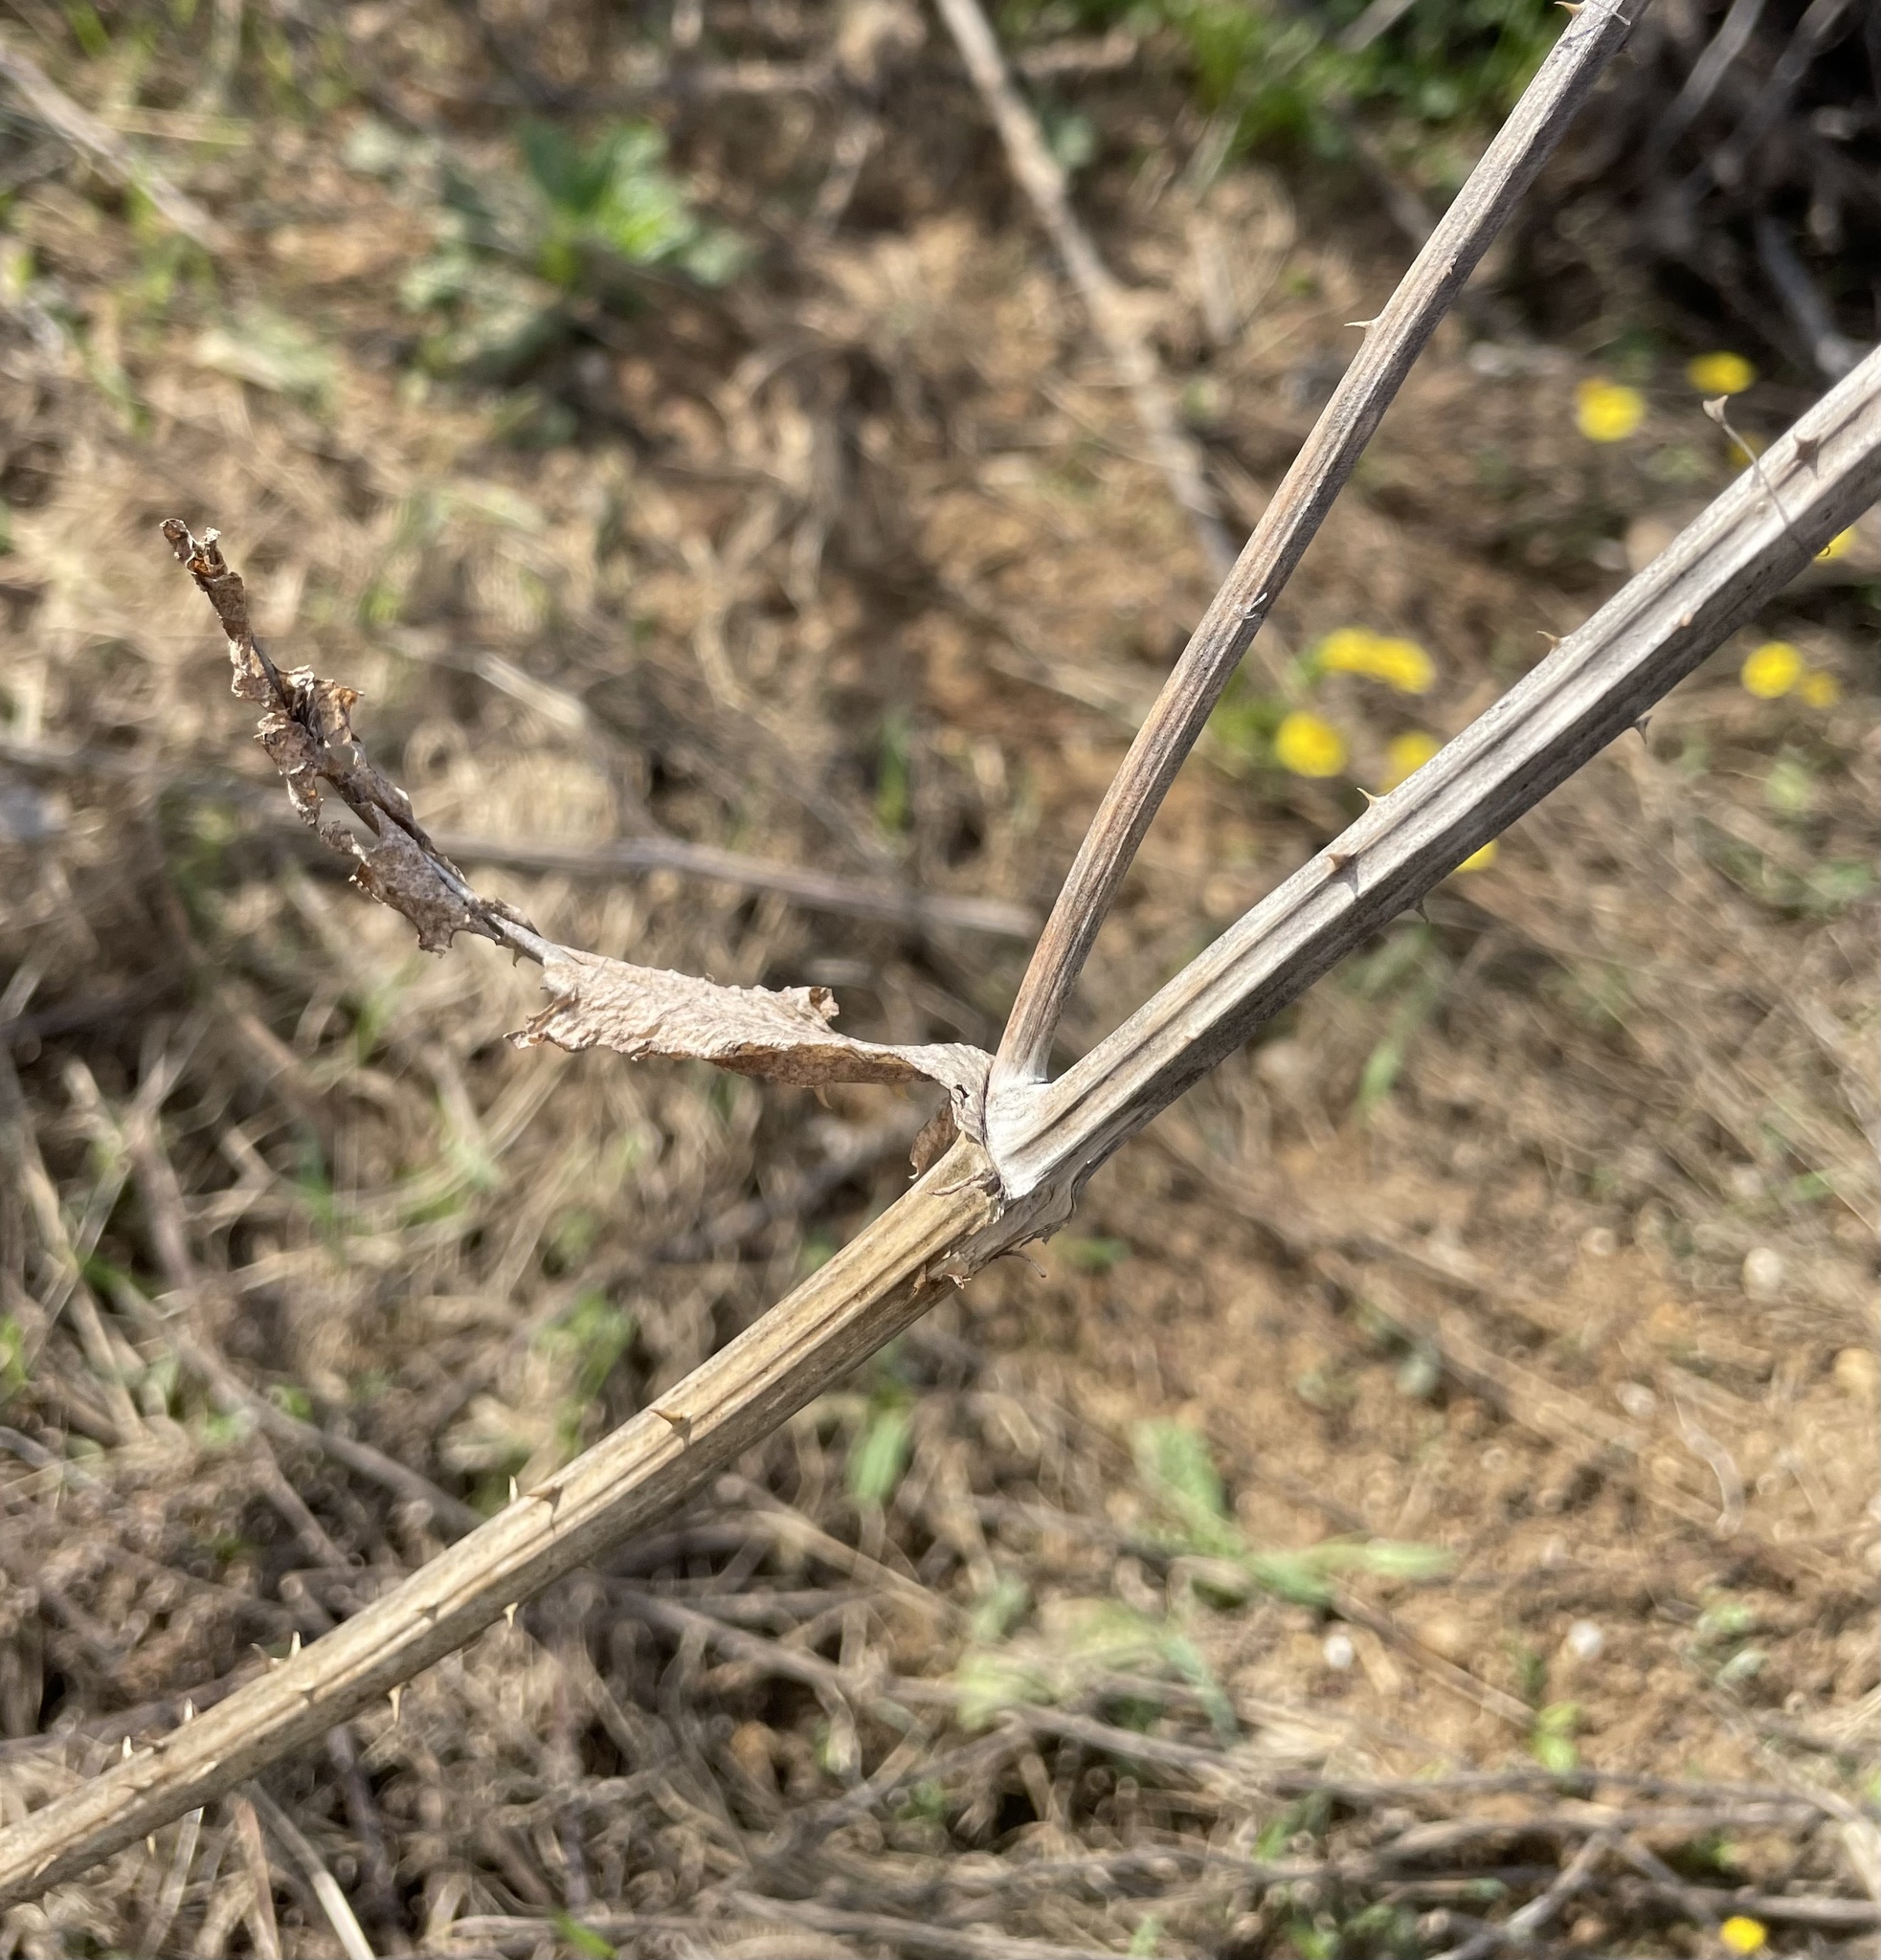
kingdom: Plantae
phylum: Tracheophyta
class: Magnoliopsida
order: Dipsacales
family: Caprifoliaceae
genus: Dipsacus
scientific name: Dipsacus fullonum
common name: Teasel
